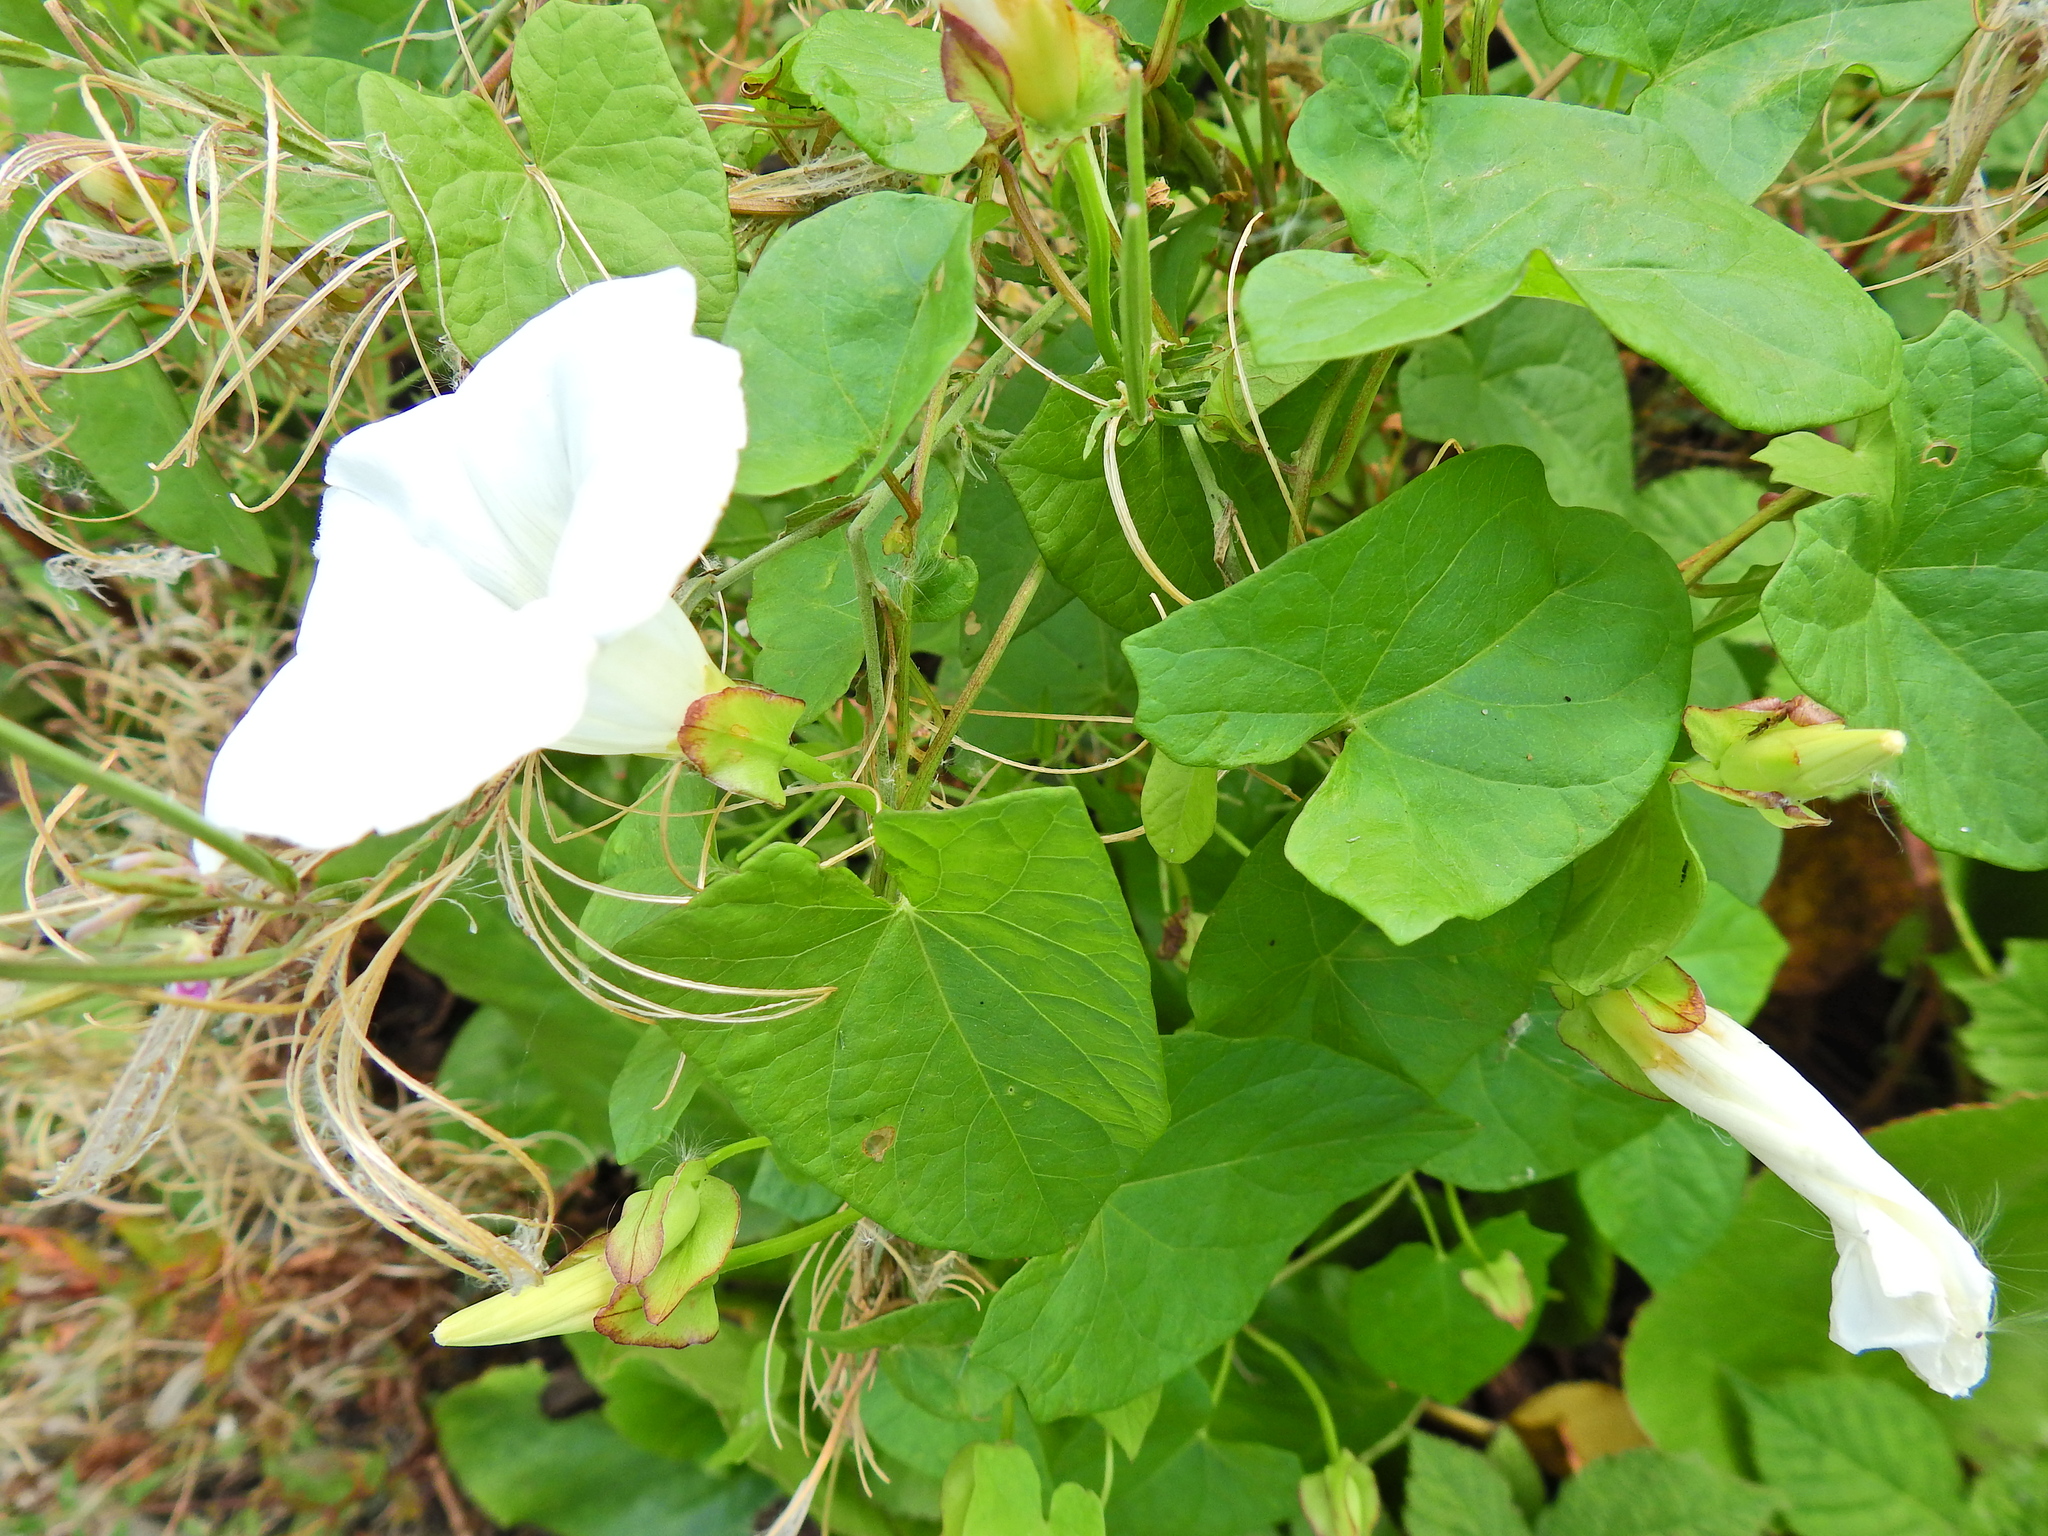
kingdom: Plantae
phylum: Tracheophyta
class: Magnoliopsida
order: Solanales
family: Convolvulaceae
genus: Calystegia
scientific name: Calystegia sepium
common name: Hedge bindweed
